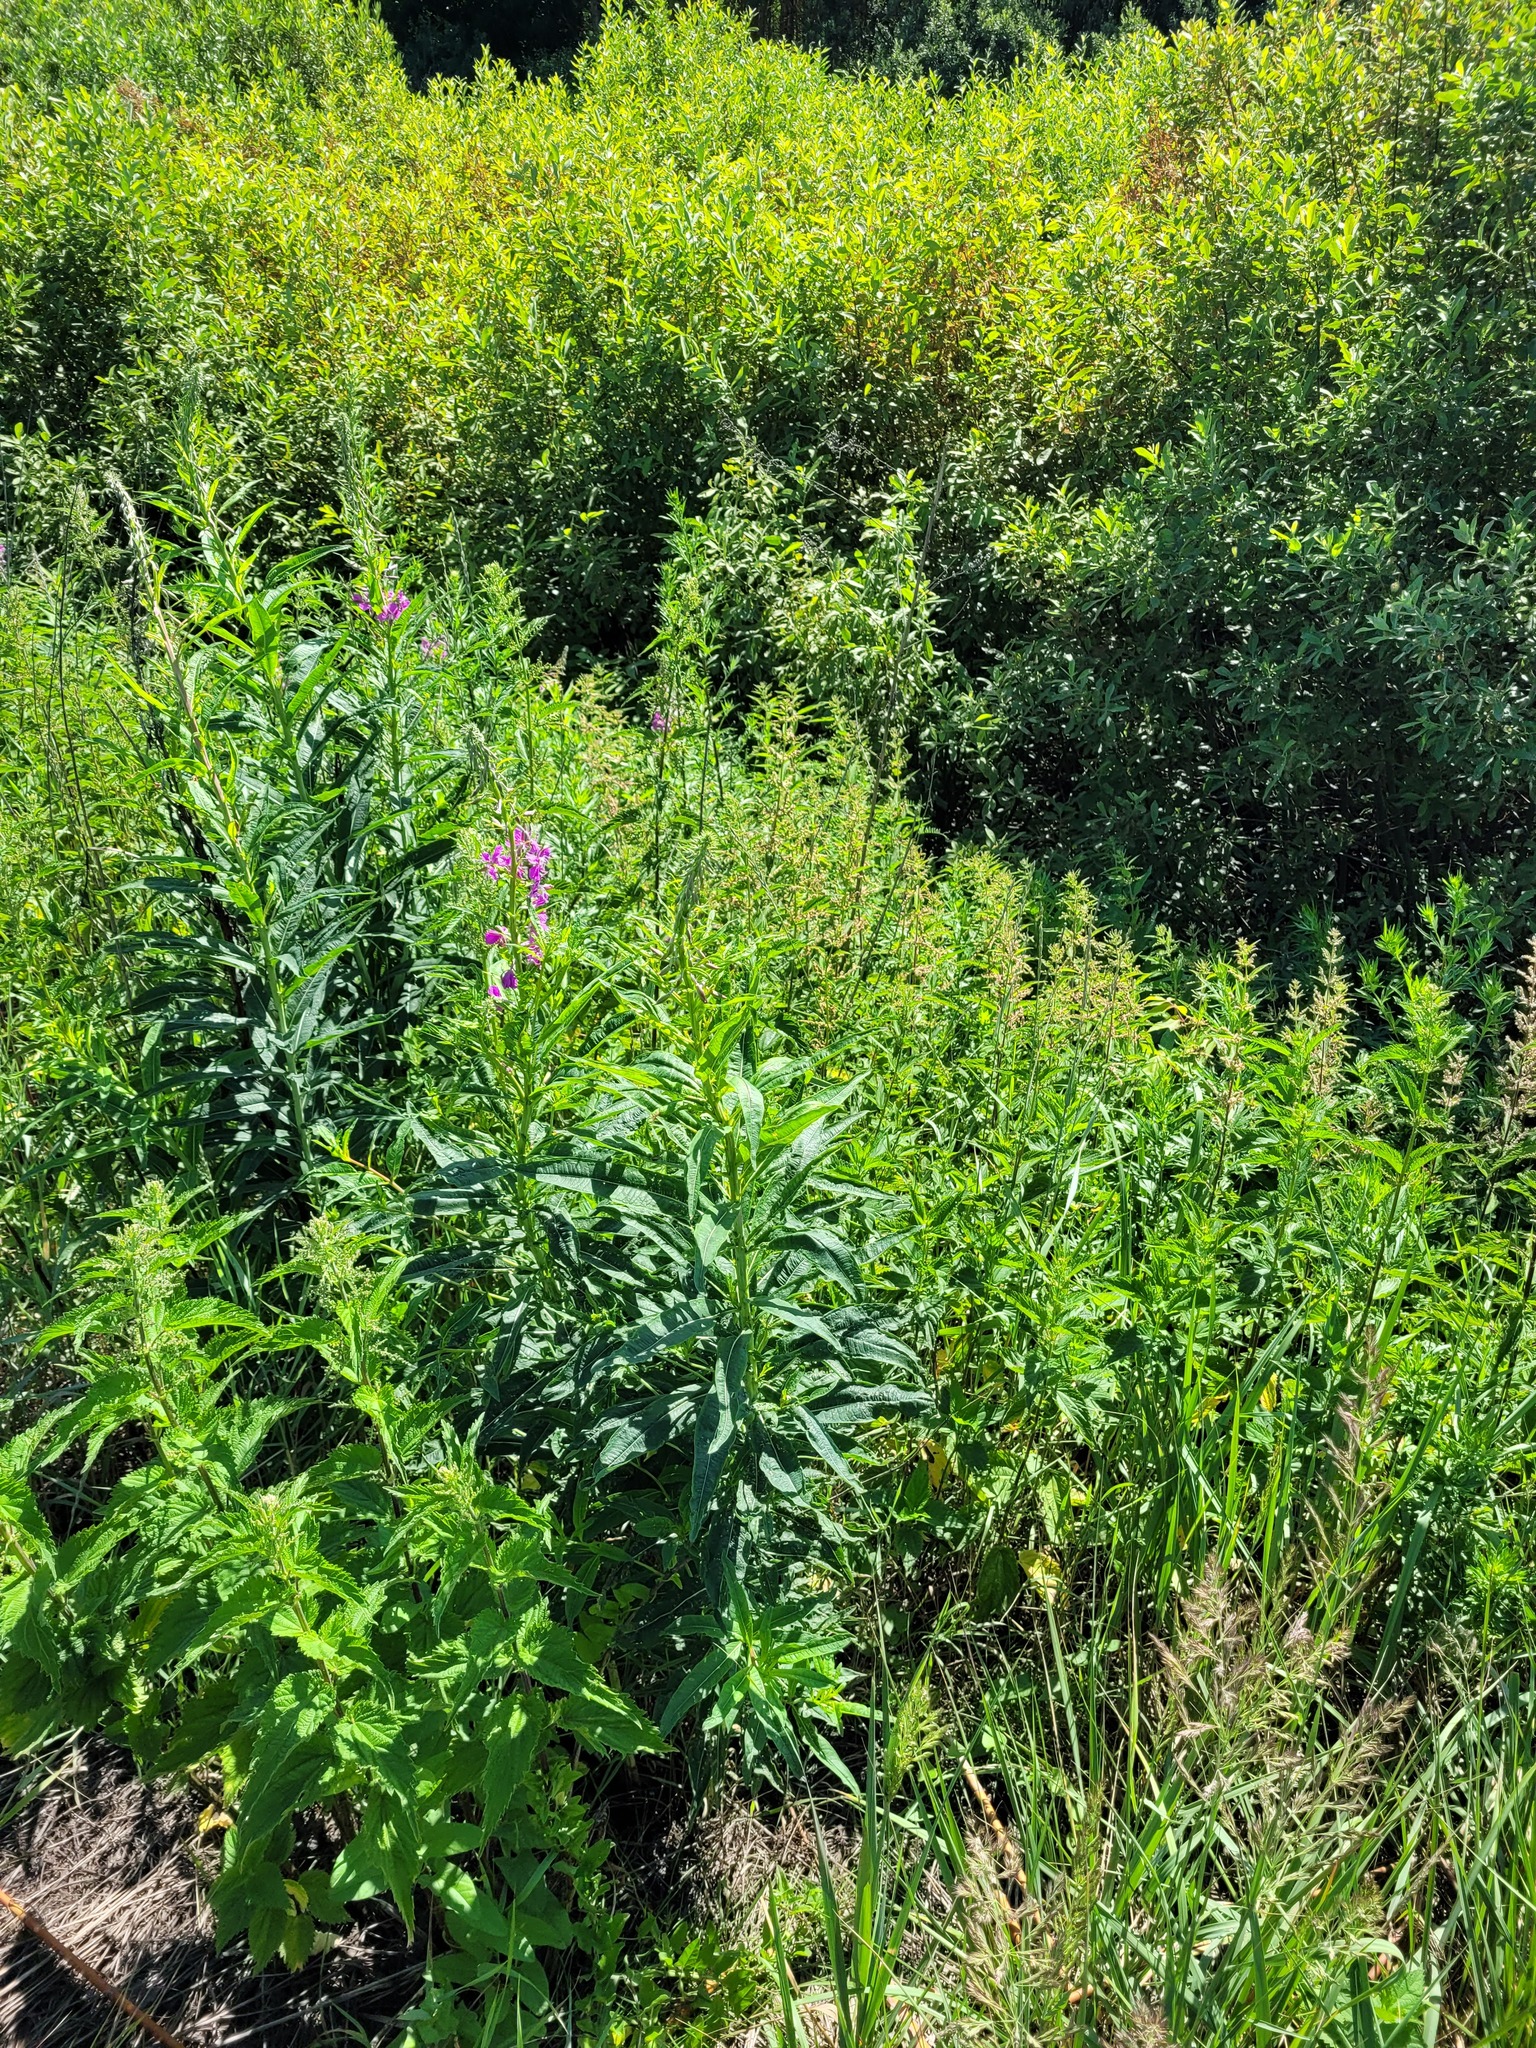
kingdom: Plantae
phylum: Tracheophyta
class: Magnoliopsida
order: Myrtales
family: Onagraceae
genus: Chamaenerion
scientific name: Chamaenerion angustifolium
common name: Fireweed
